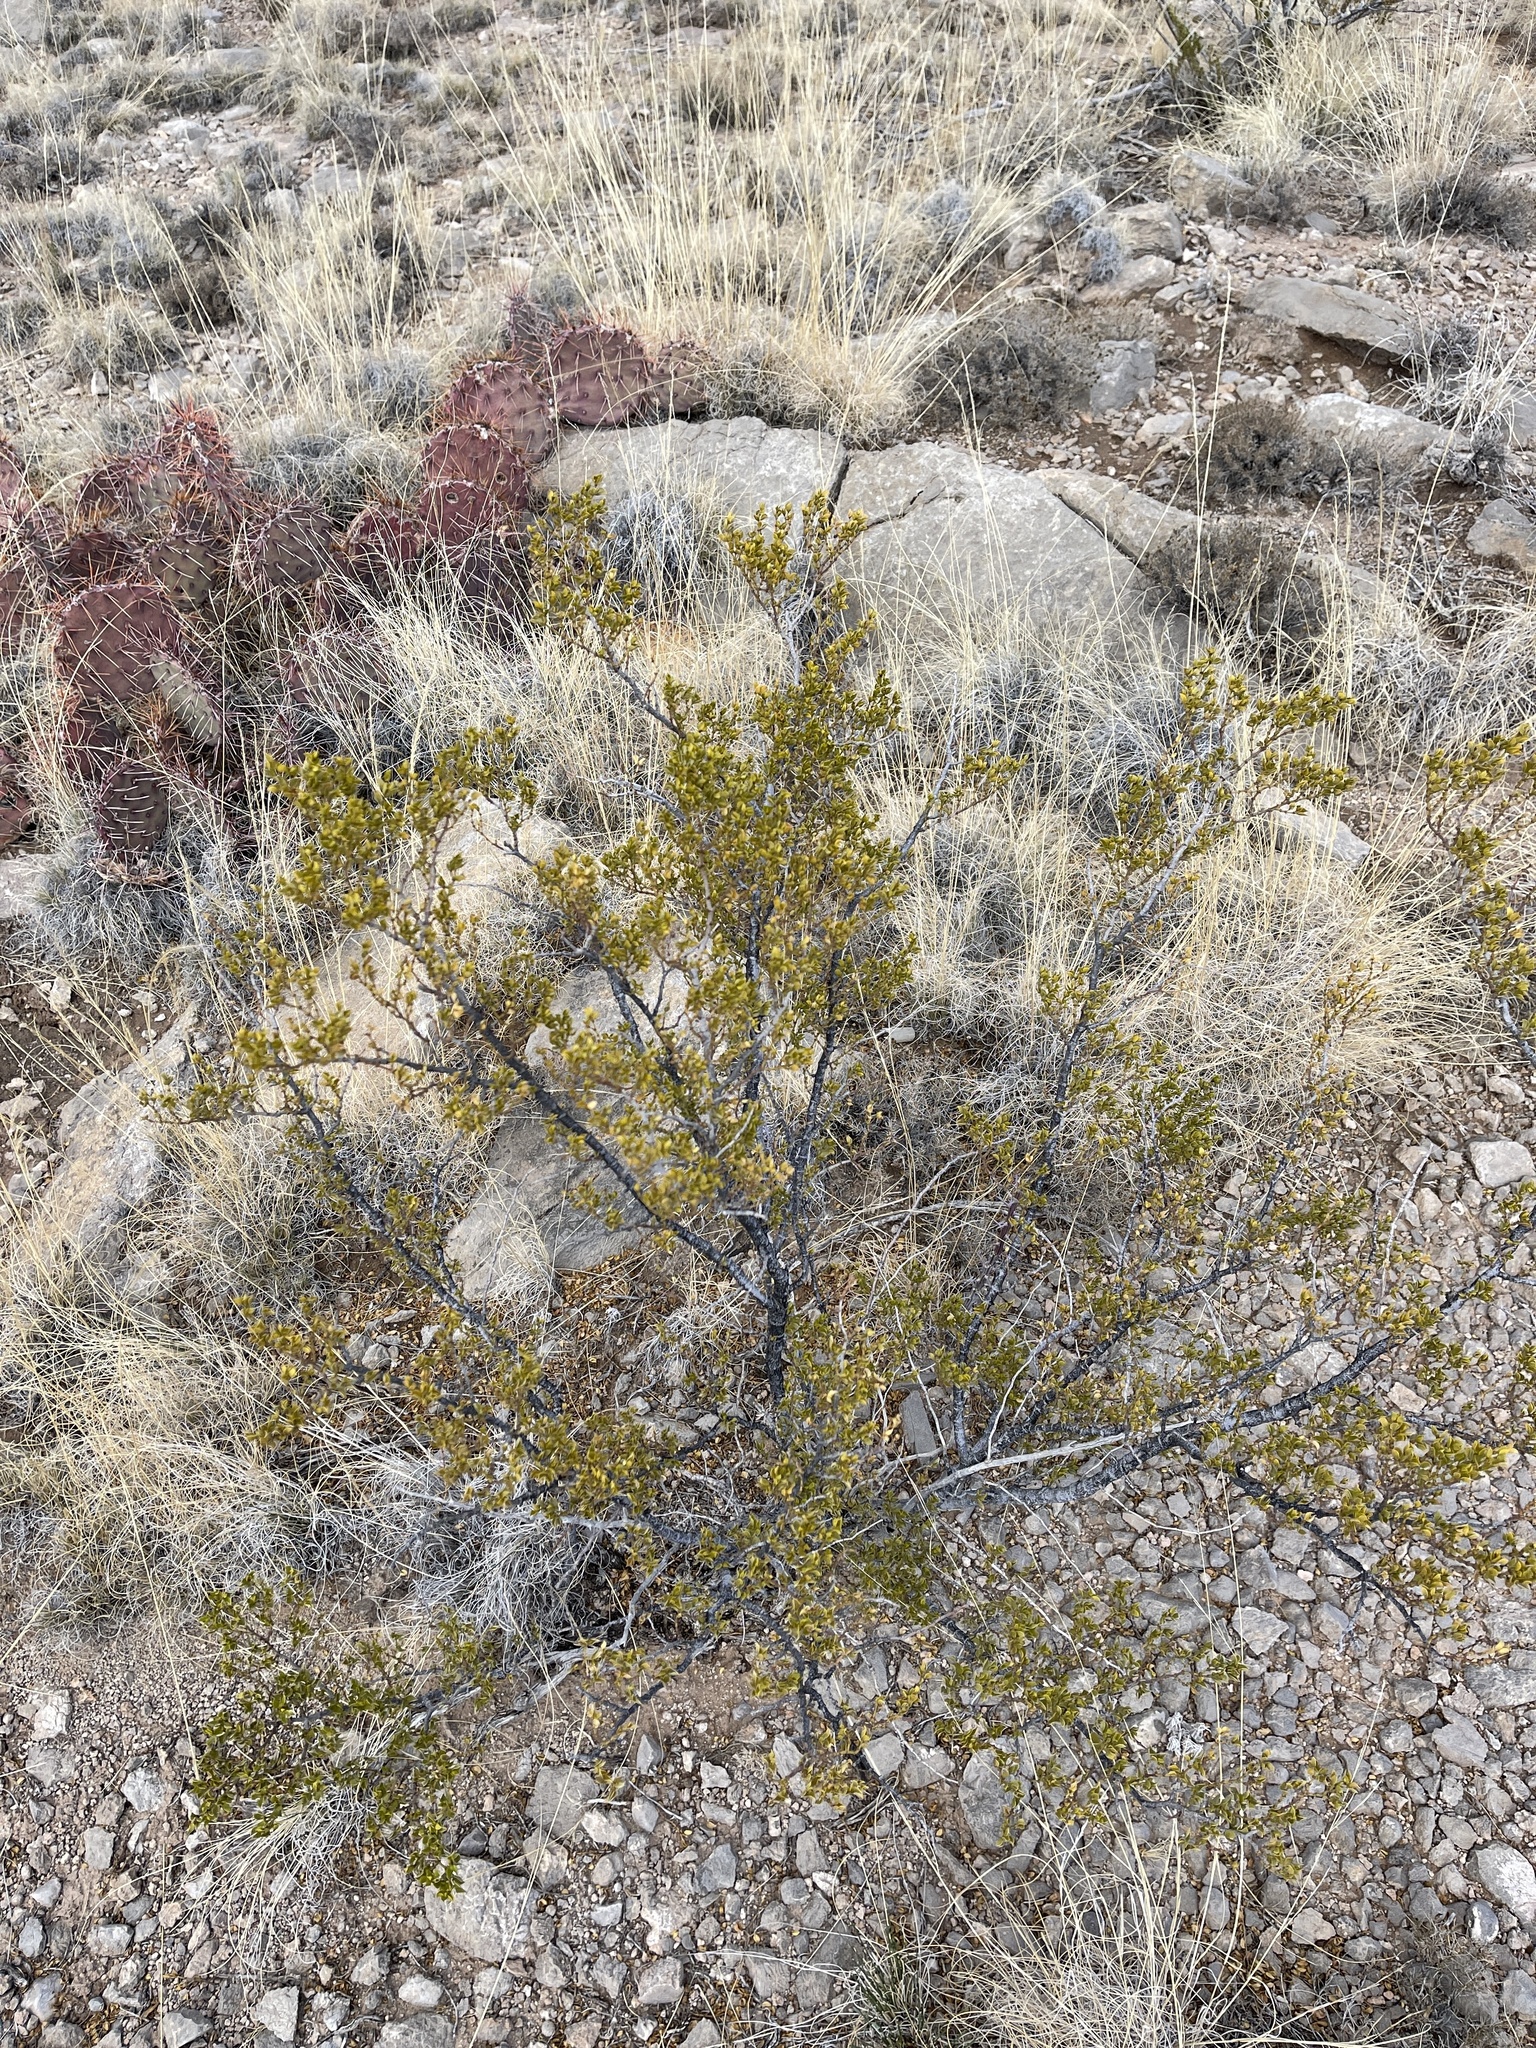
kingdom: Plantae
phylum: Tracheophyta
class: Magnoliopsida
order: Zygophyllales
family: Zygophyllaceae
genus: Larrea
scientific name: Larrea tridentata
